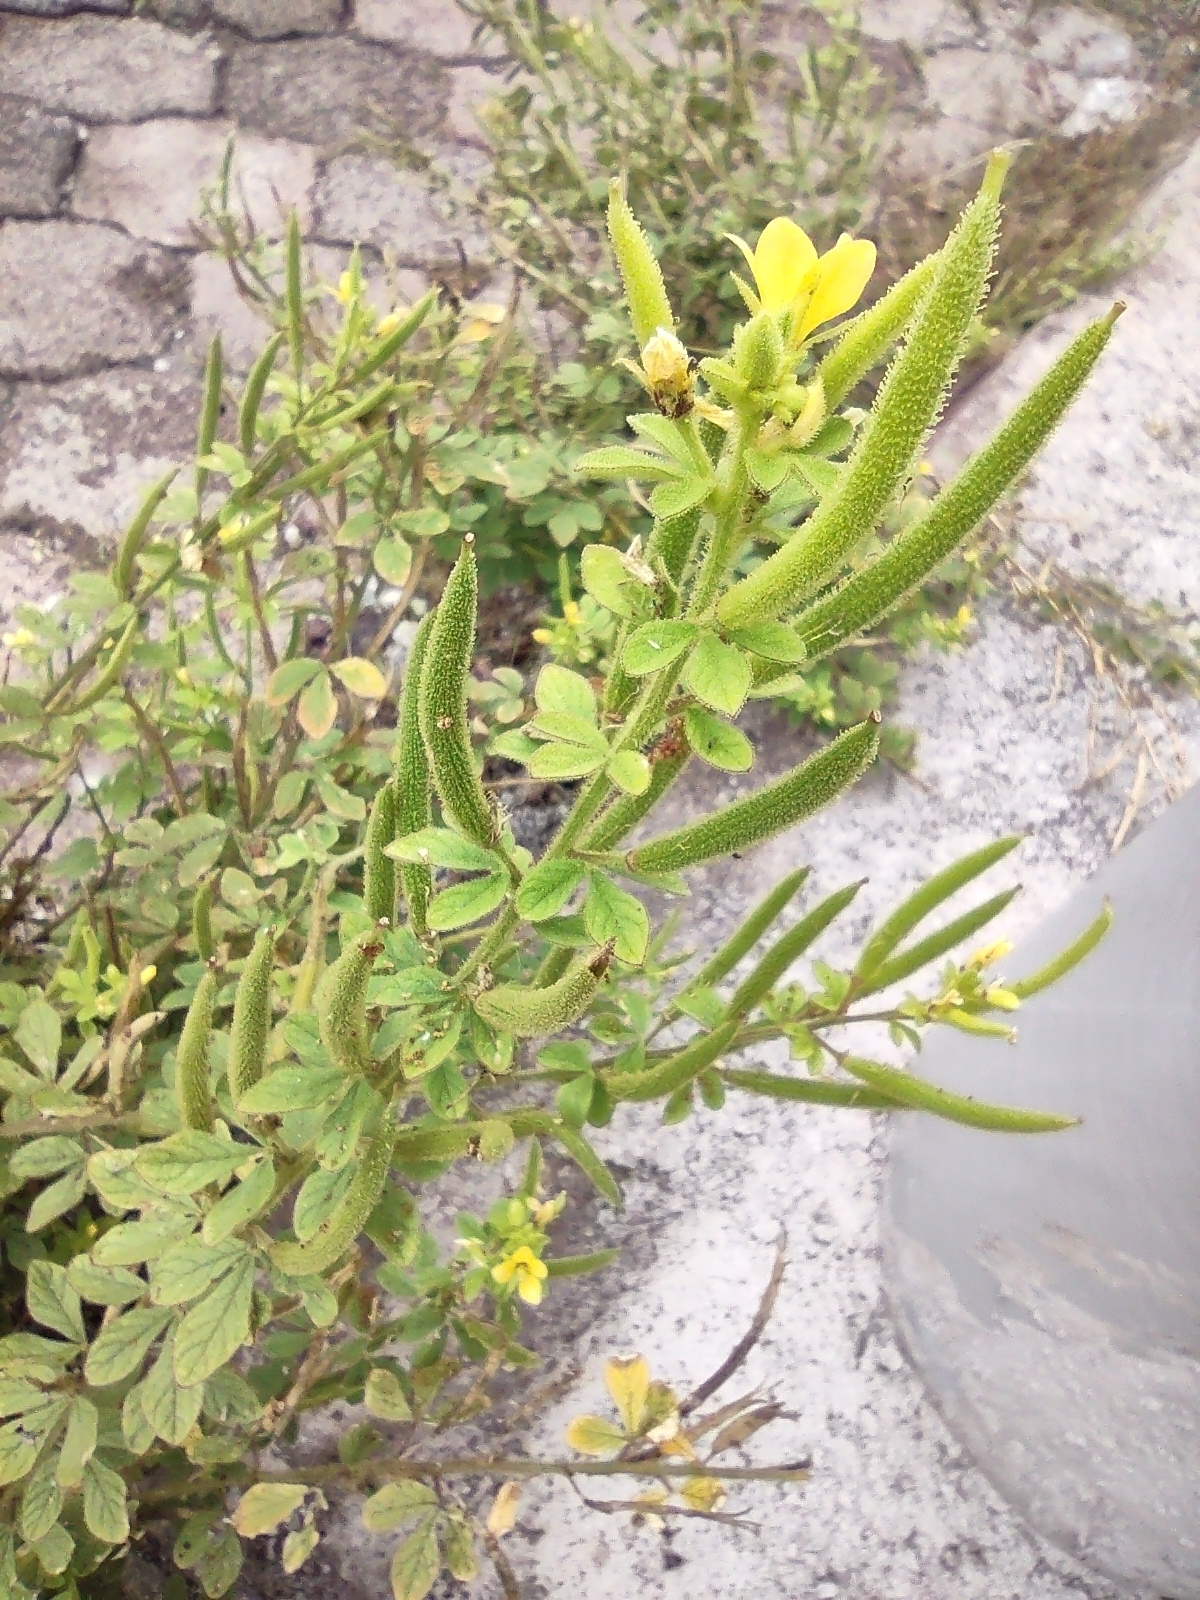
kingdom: Plantae
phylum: Tracheophyta
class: Magnoliopsida
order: Brassicales
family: Cleomaceae
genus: Arivela
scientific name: Arivela viscosa
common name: Asian spiderflower
